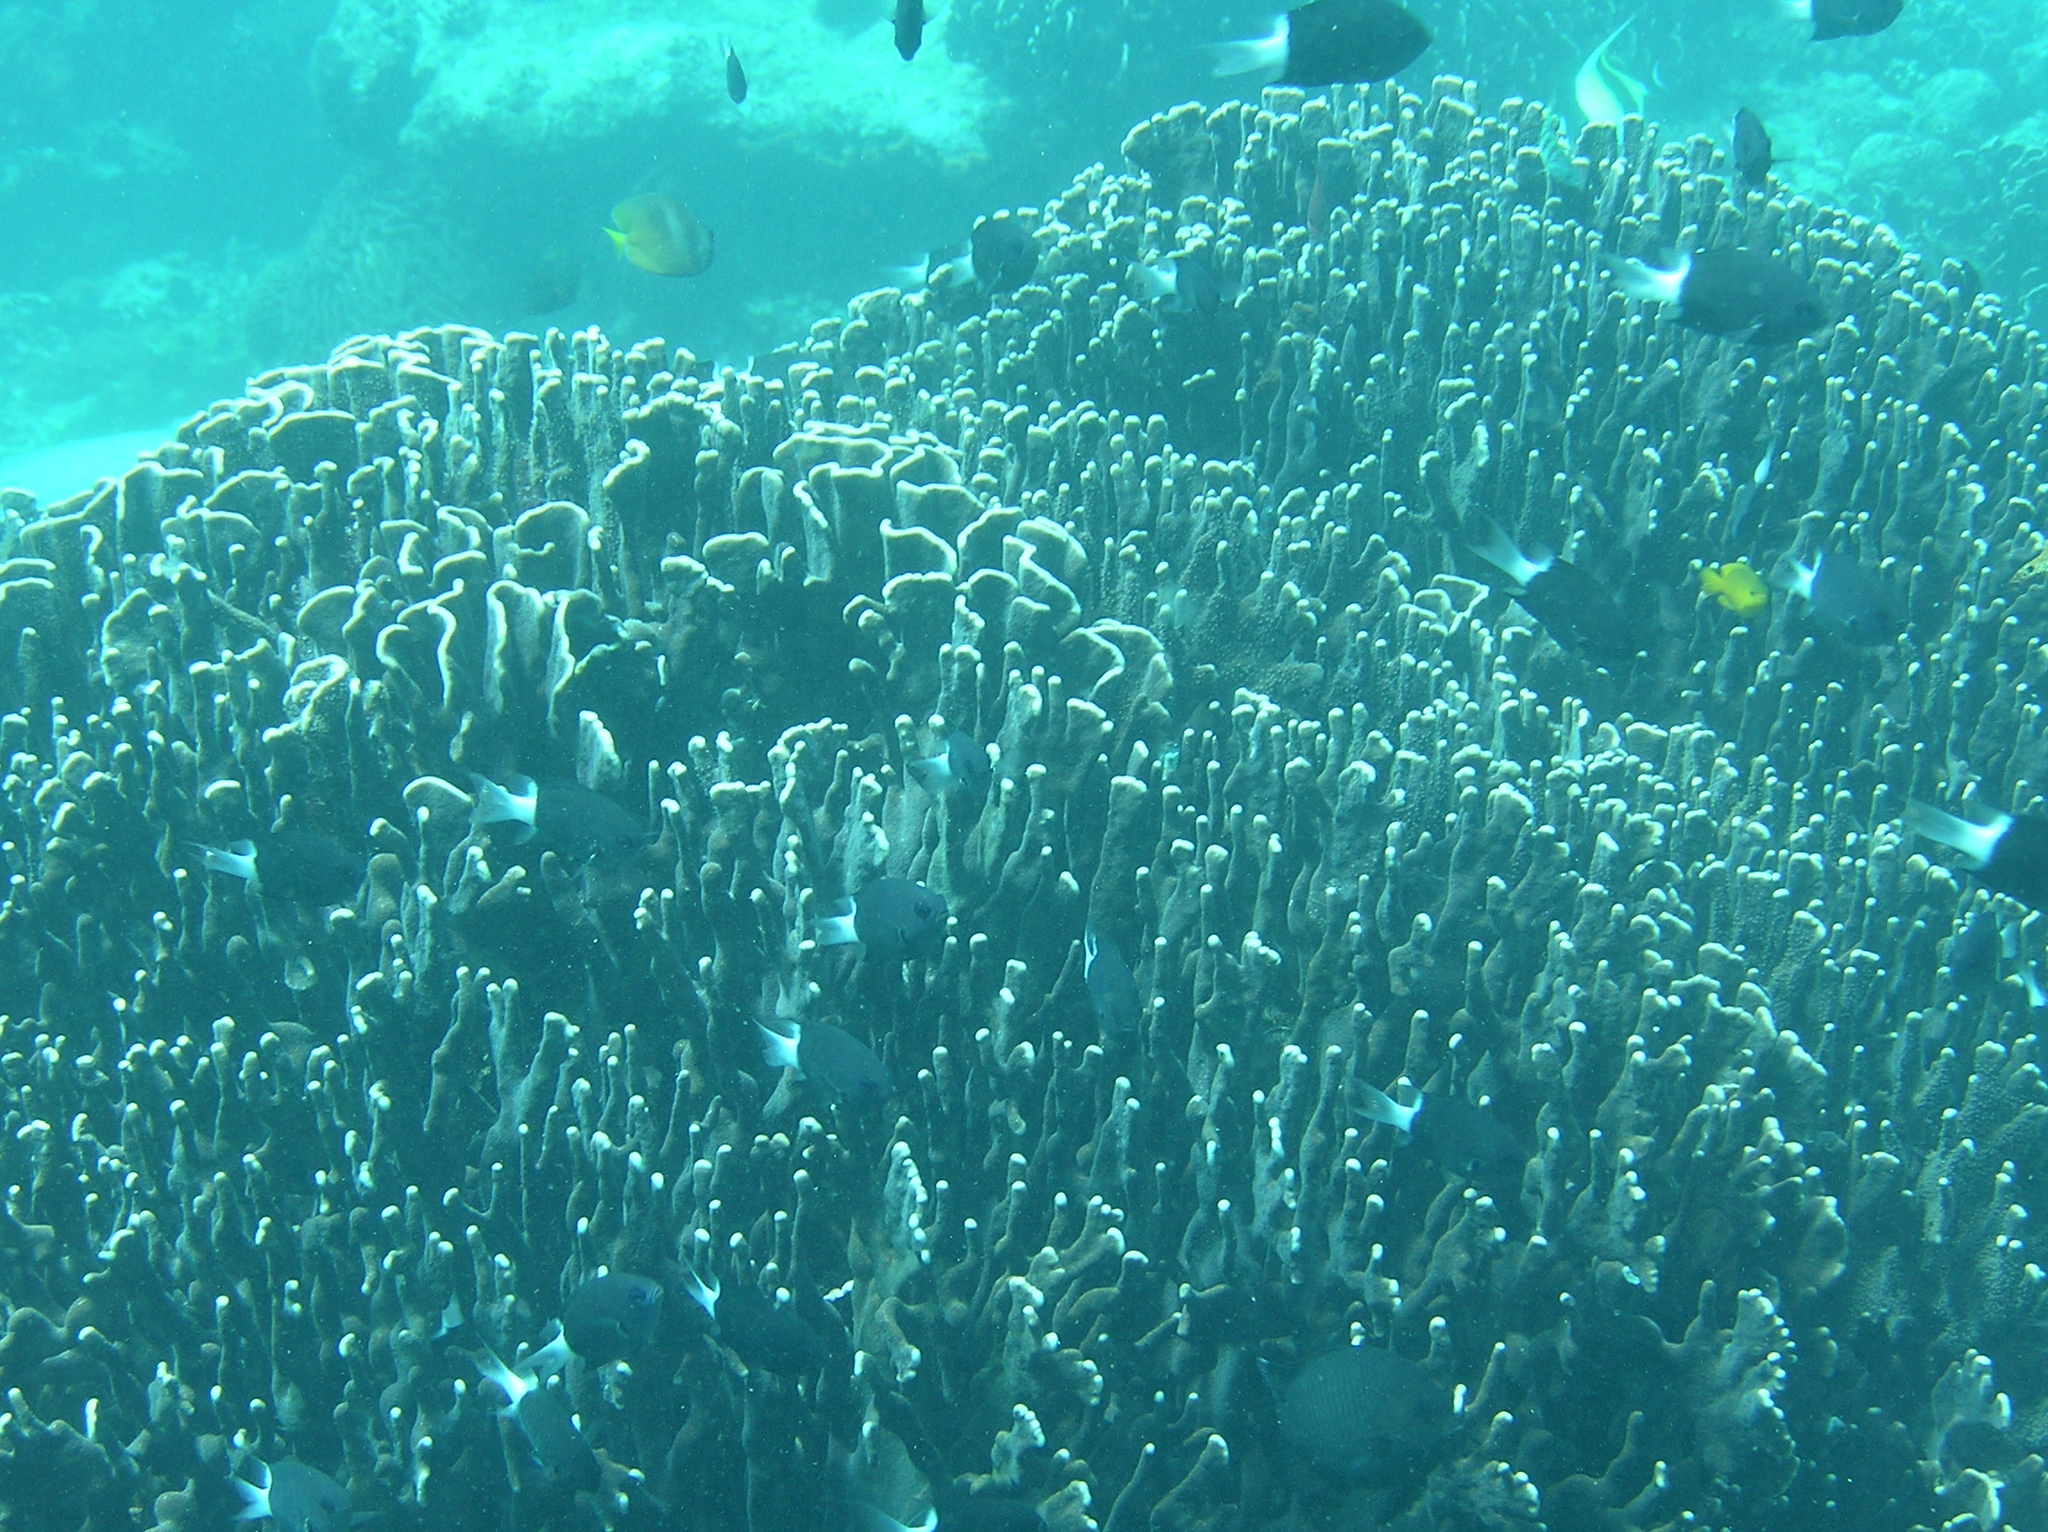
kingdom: Animalia
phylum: Chordata
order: Perciformes
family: Pomacentridae
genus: Pycnochromis
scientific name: Pycnochromis margaritifer
